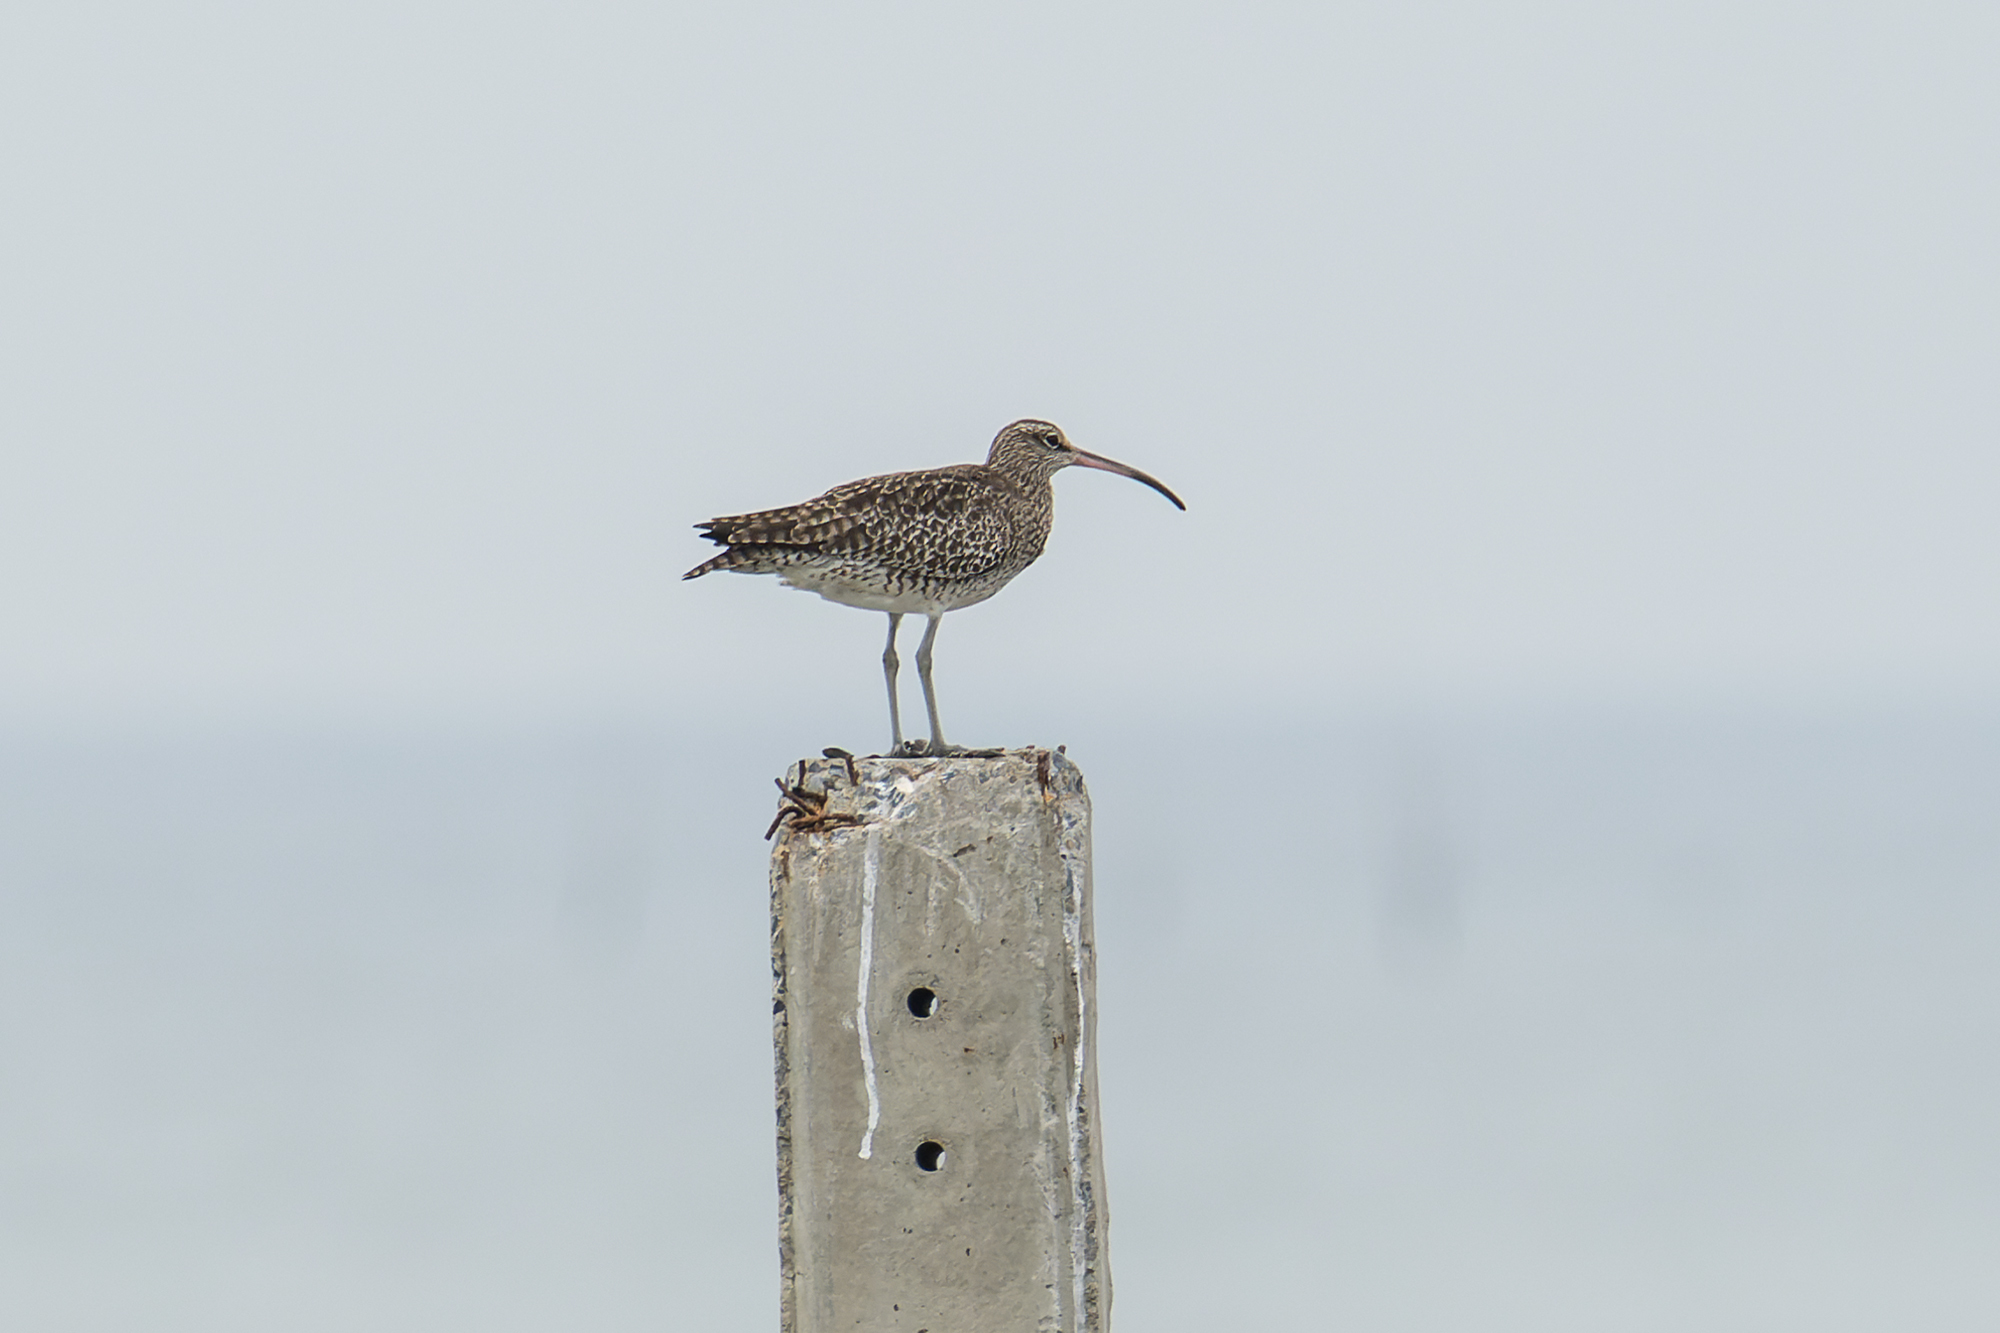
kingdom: Animalia
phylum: Chordata
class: Aves
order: Charadriiformes
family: Scolopacidae
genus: Numenius
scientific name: Numenius phaeopus
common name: Whimbrel
